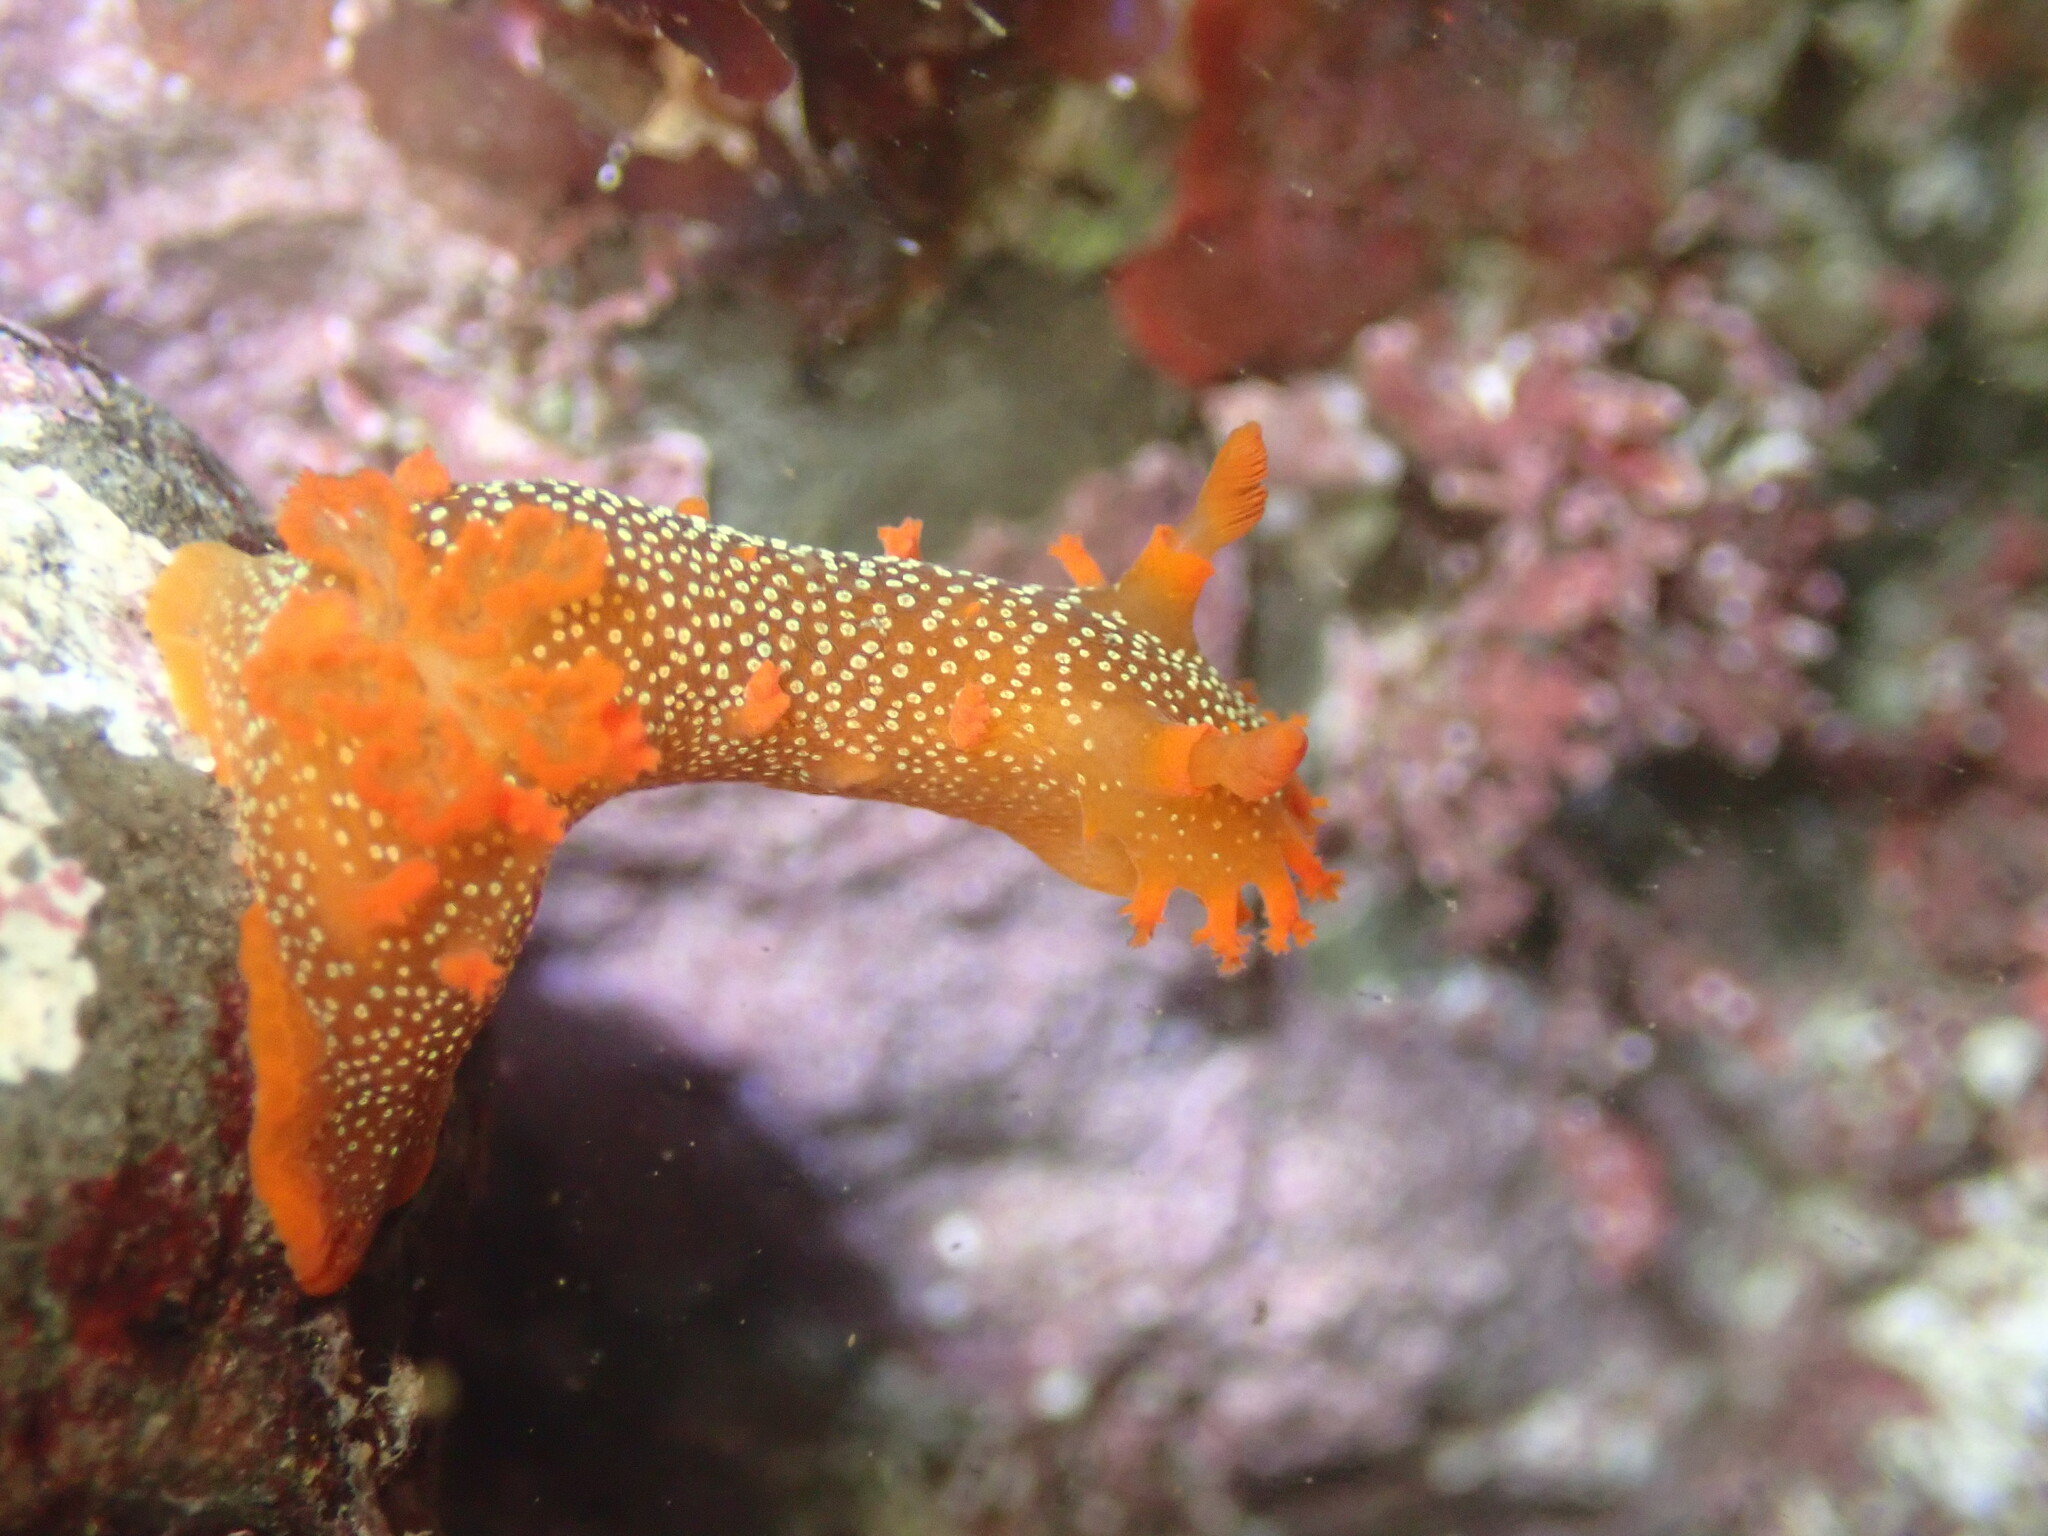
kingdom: Animalia
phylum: Mollusca
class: Gastropoda
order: Nudibranchia
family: Polyceridae
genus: Triopha
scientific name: Triopha maculata
